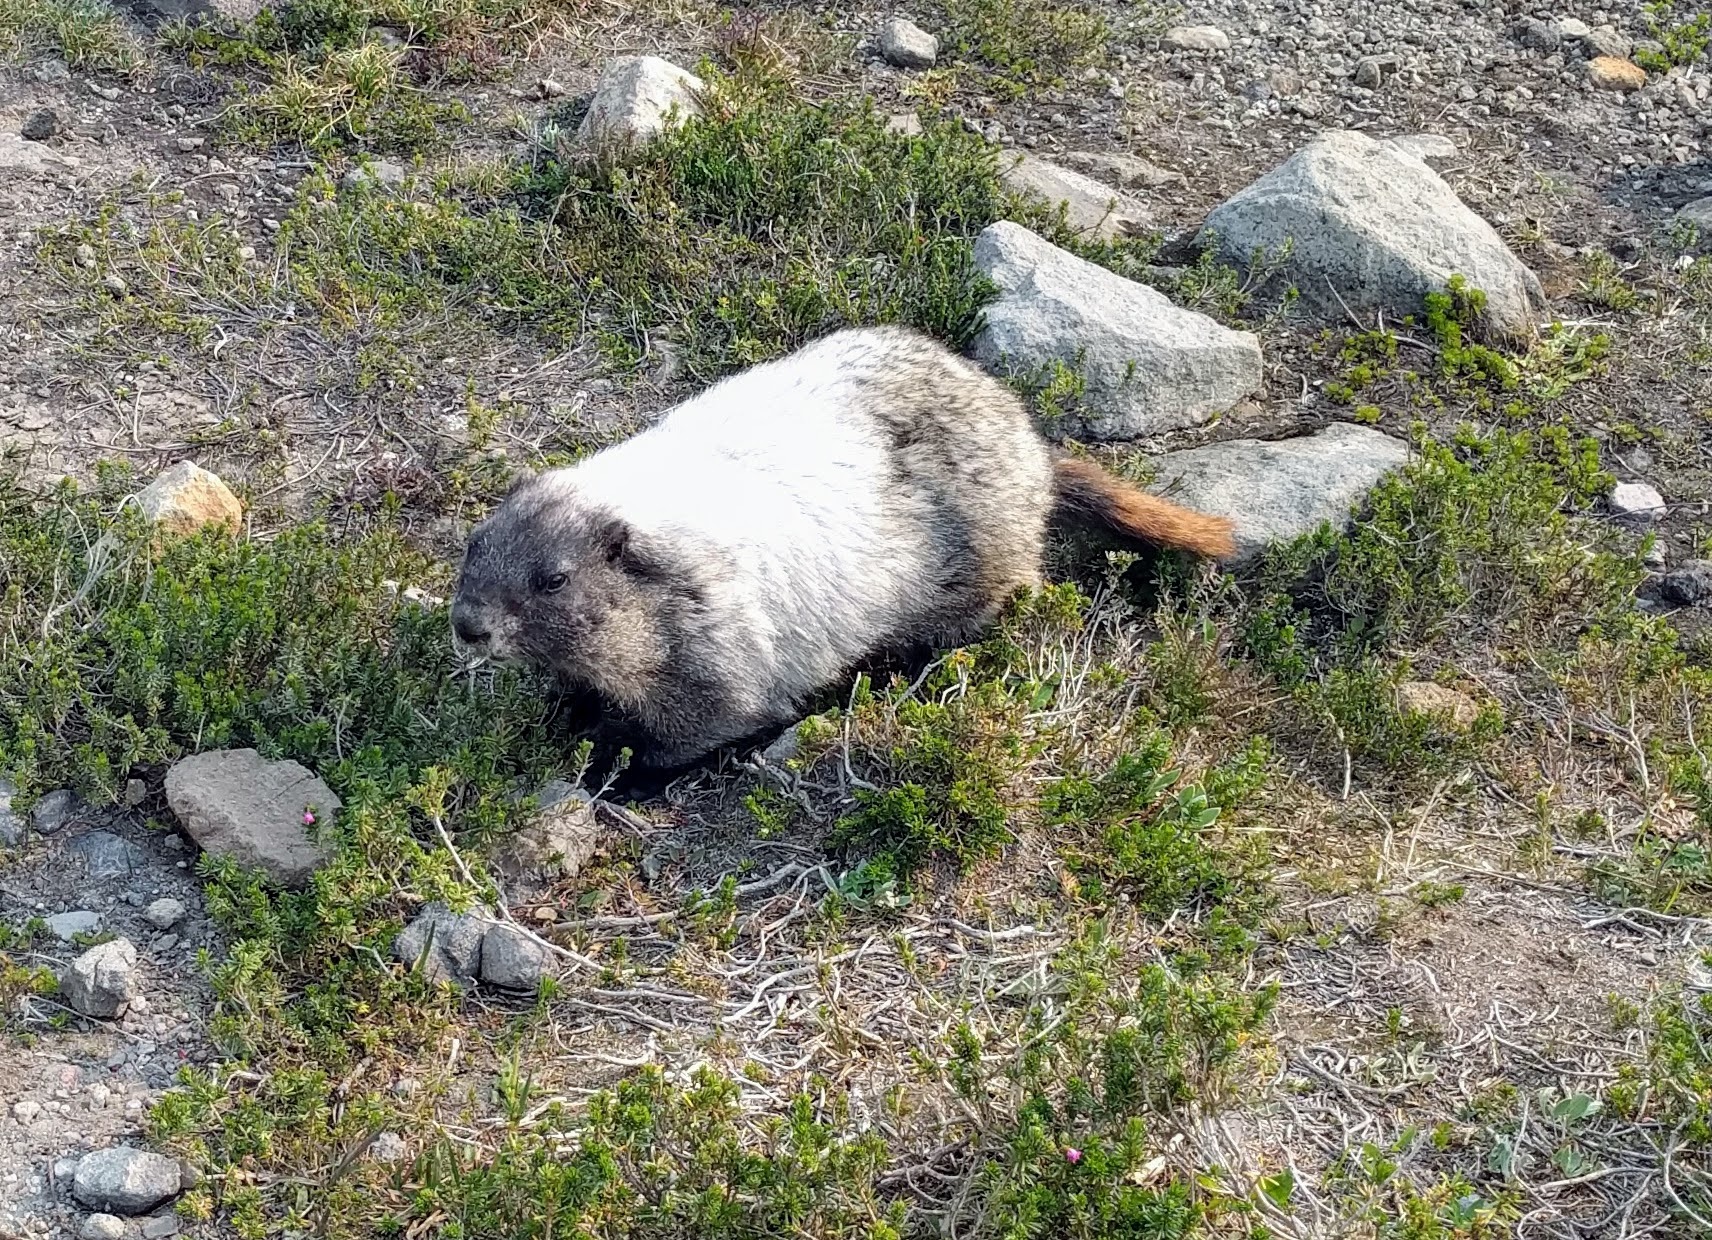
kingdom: Animalia
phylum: Chordata
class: Mammalia
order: Rodentia
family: Sciuridae
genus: Marmota
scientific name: Marmota caligata
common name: Hoary marmot
